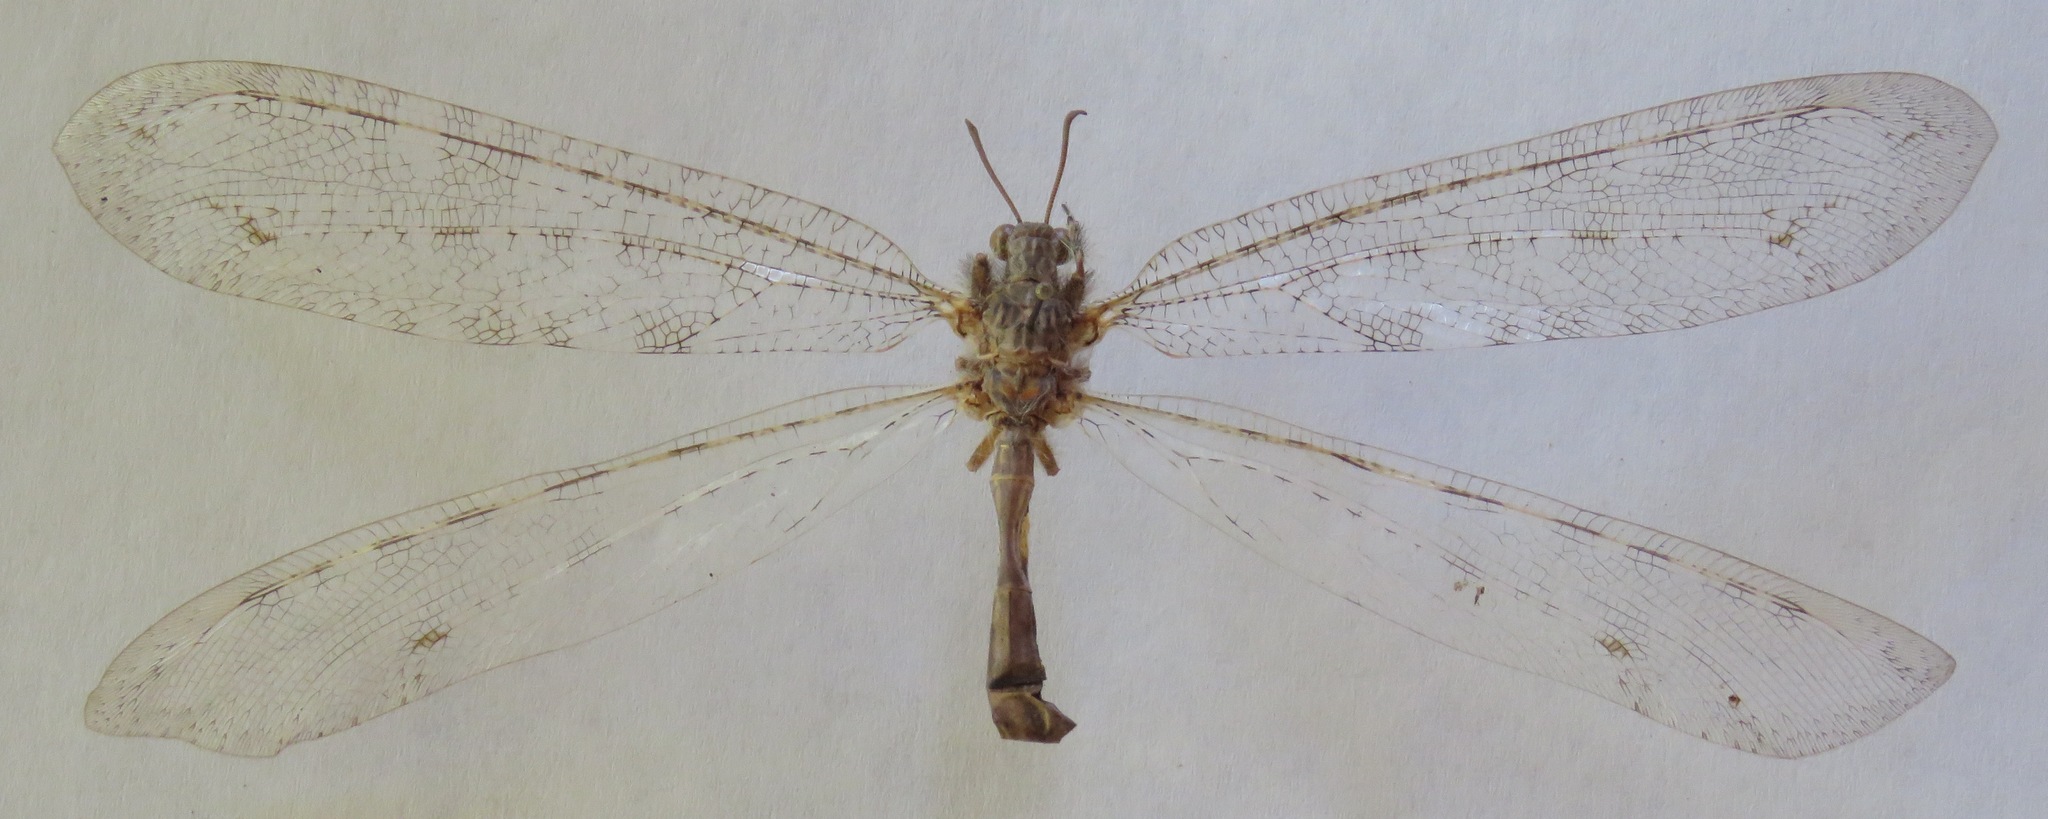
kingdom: Animalia
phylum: Arthropoda
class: Insecta
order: Neuroptera
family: Myrmeleontidae
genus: Vella
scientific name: Vella fallax
